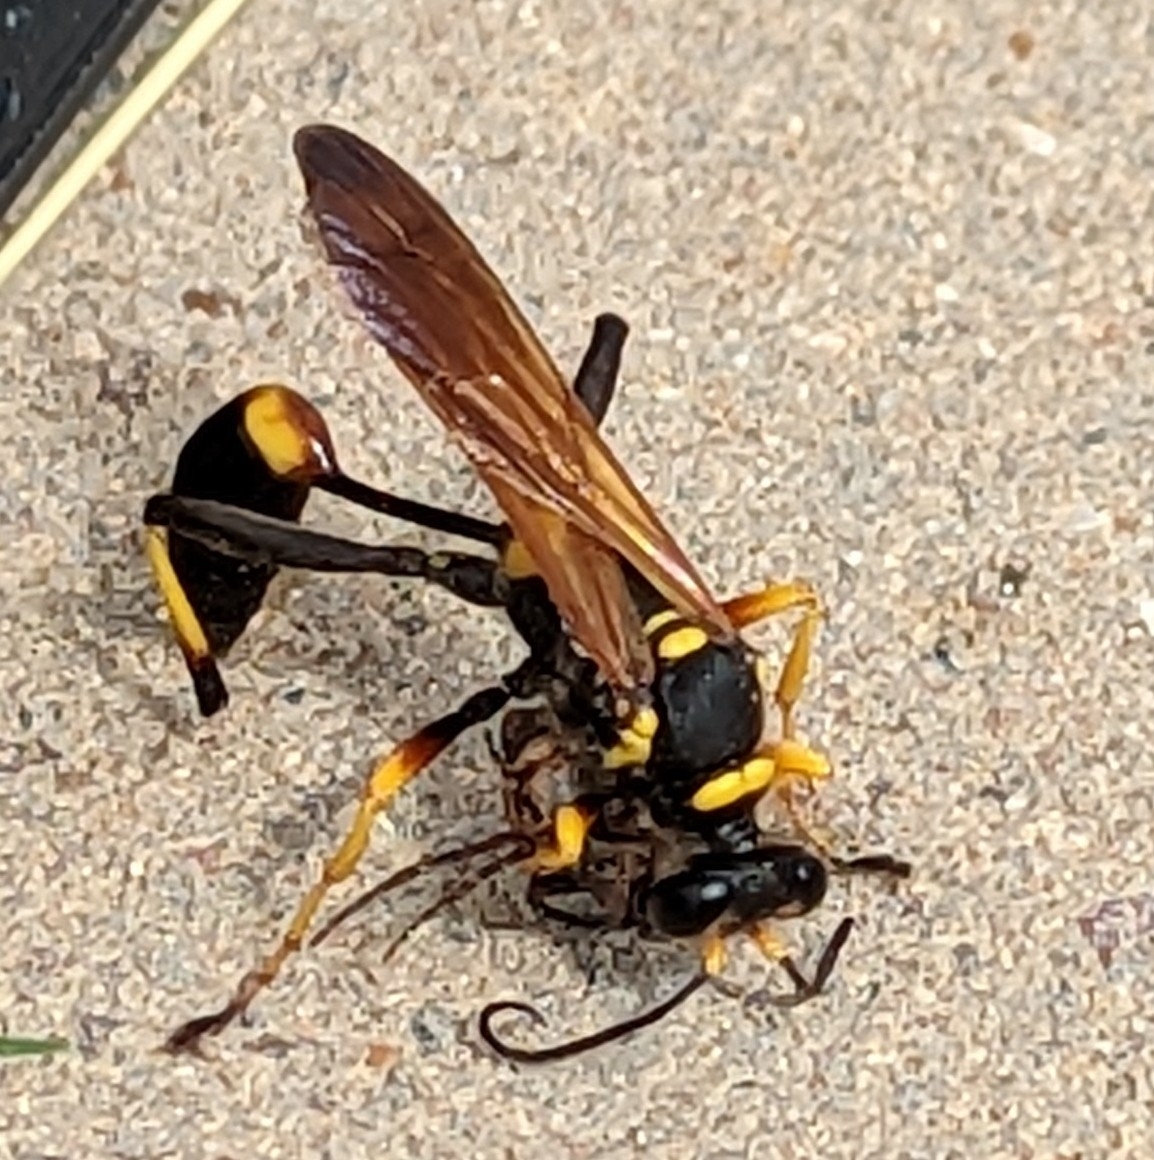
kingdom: Animalia
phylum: Arthropoda
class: Insecta
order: Hymenoptera
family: Sphecidae
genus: Sceliphron
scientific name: Sceliphron caementarium
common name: Mud dauber
